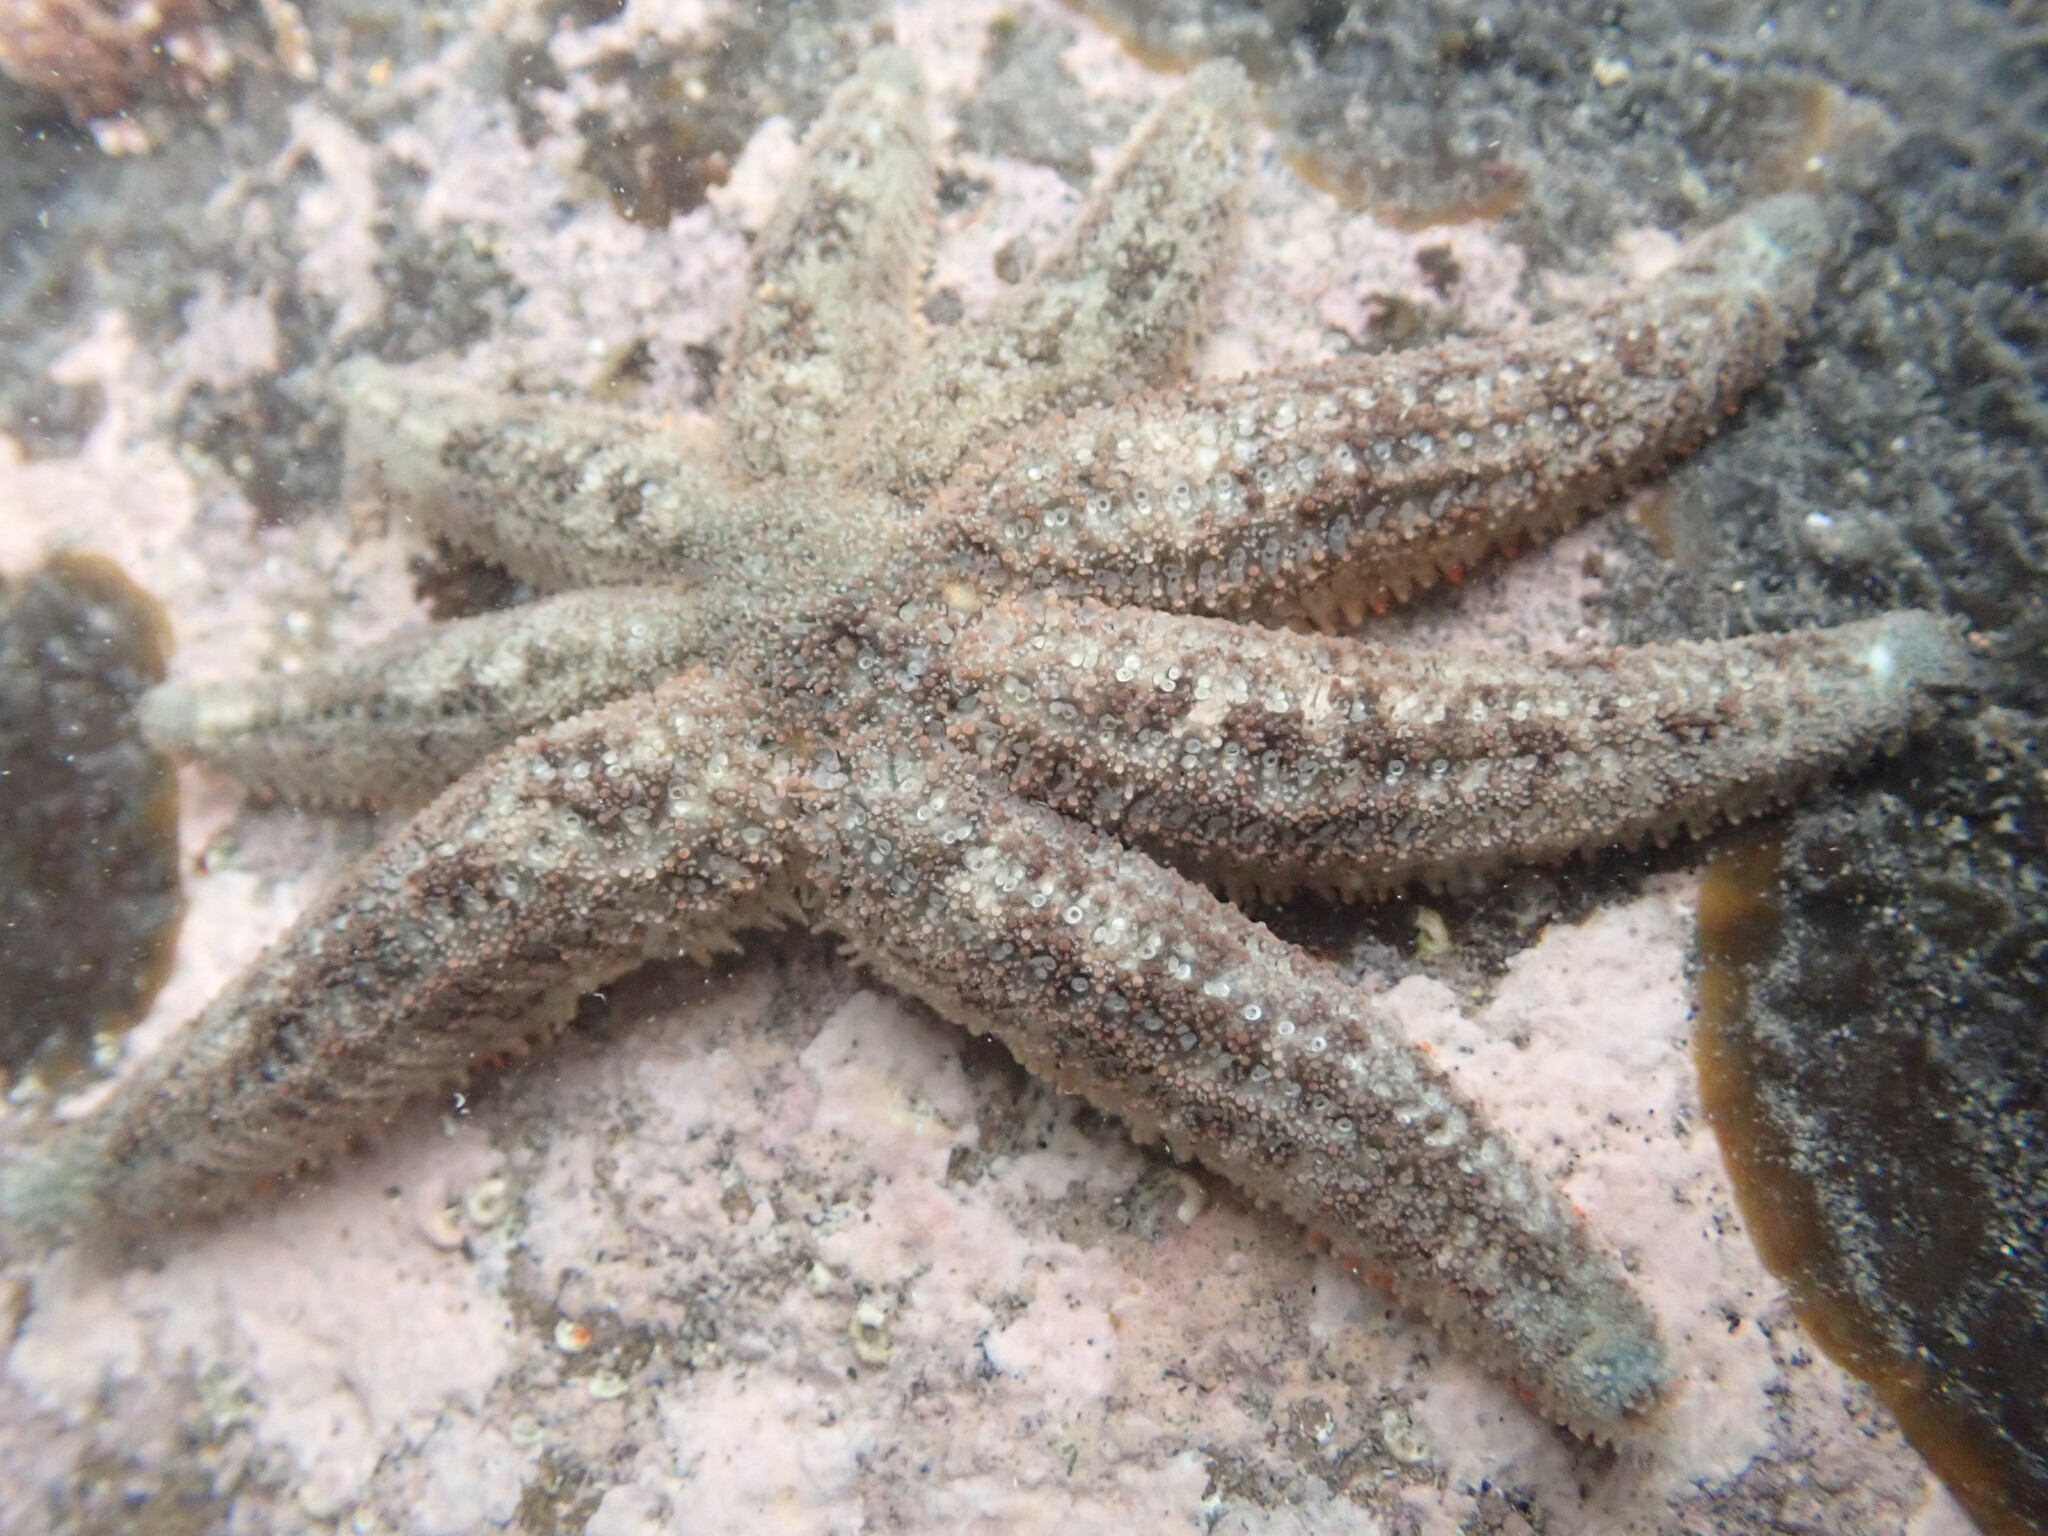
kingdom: Animalia
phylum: Echinodermata
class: Asteroidea
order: Forcipulatida
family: Stichasteridae
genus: Allostichaster
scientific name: Allostichaster polyplax
